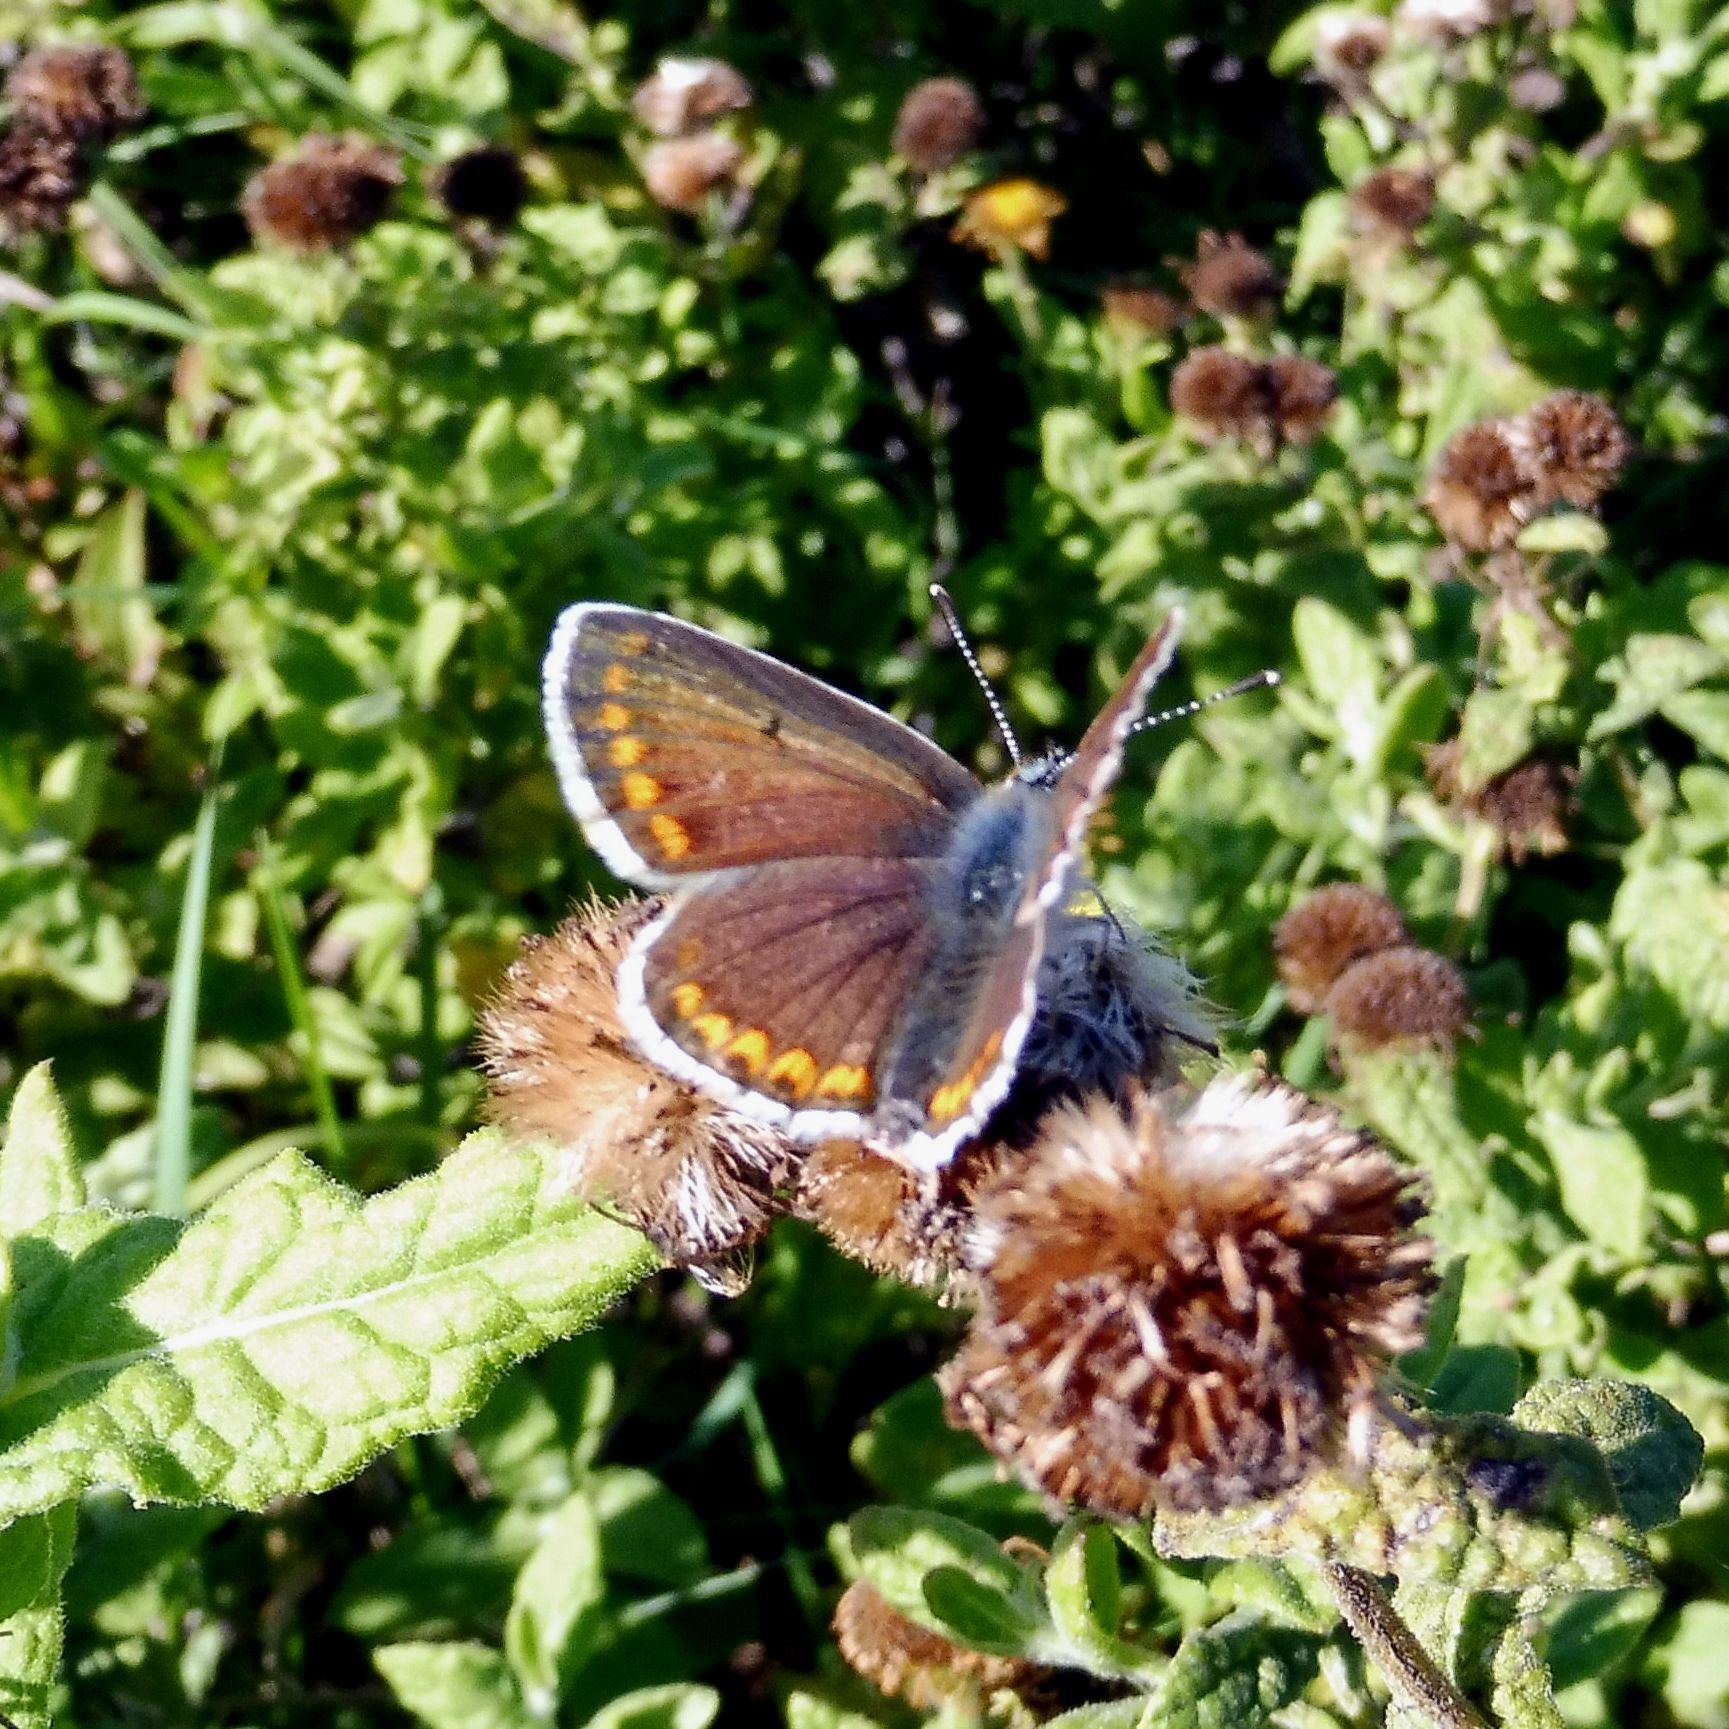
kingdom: Animalia
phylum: Arthropoda
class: Insecta
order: Lepidoptera
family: Lycaenidae
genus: Aricia
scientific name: Aricia agestis
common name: Brown argus
